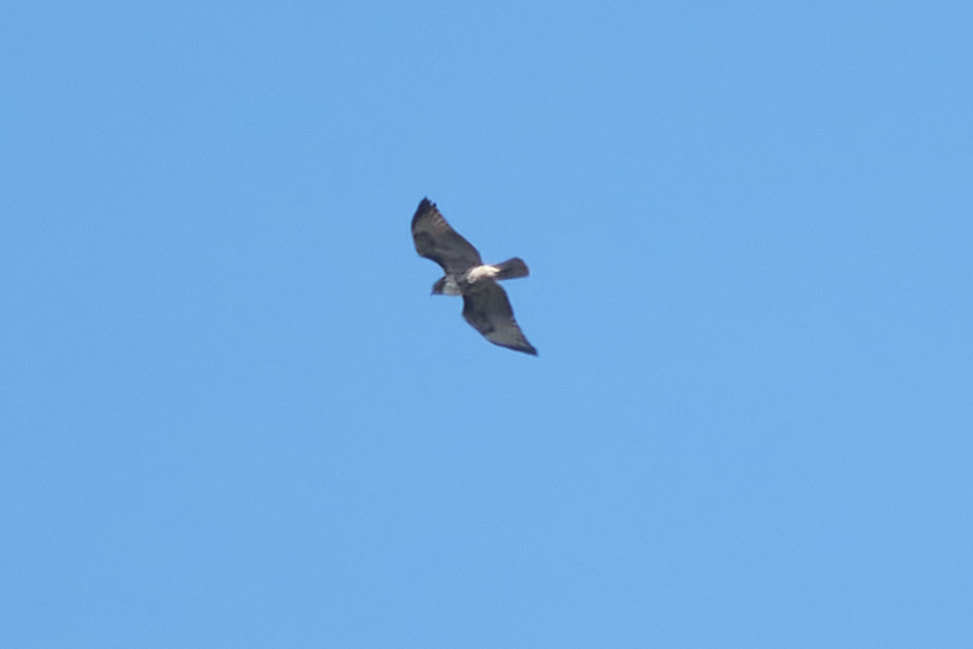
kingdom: Animalia
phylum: Chordata
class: Aves
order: Accipitriformes
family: Accipitridae
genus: Buteo
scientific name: Buteo jamaicensis
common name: Red-tailed hawk
